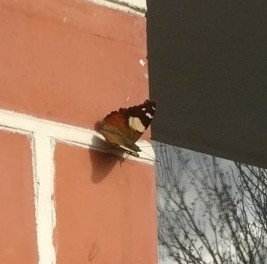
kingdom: Animalia
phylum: Arthropoda
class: Insecta
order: Lepidoptera
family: Nymphalidae
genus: Vanessa
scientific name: Vanessa itea
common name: Yellow admiral
